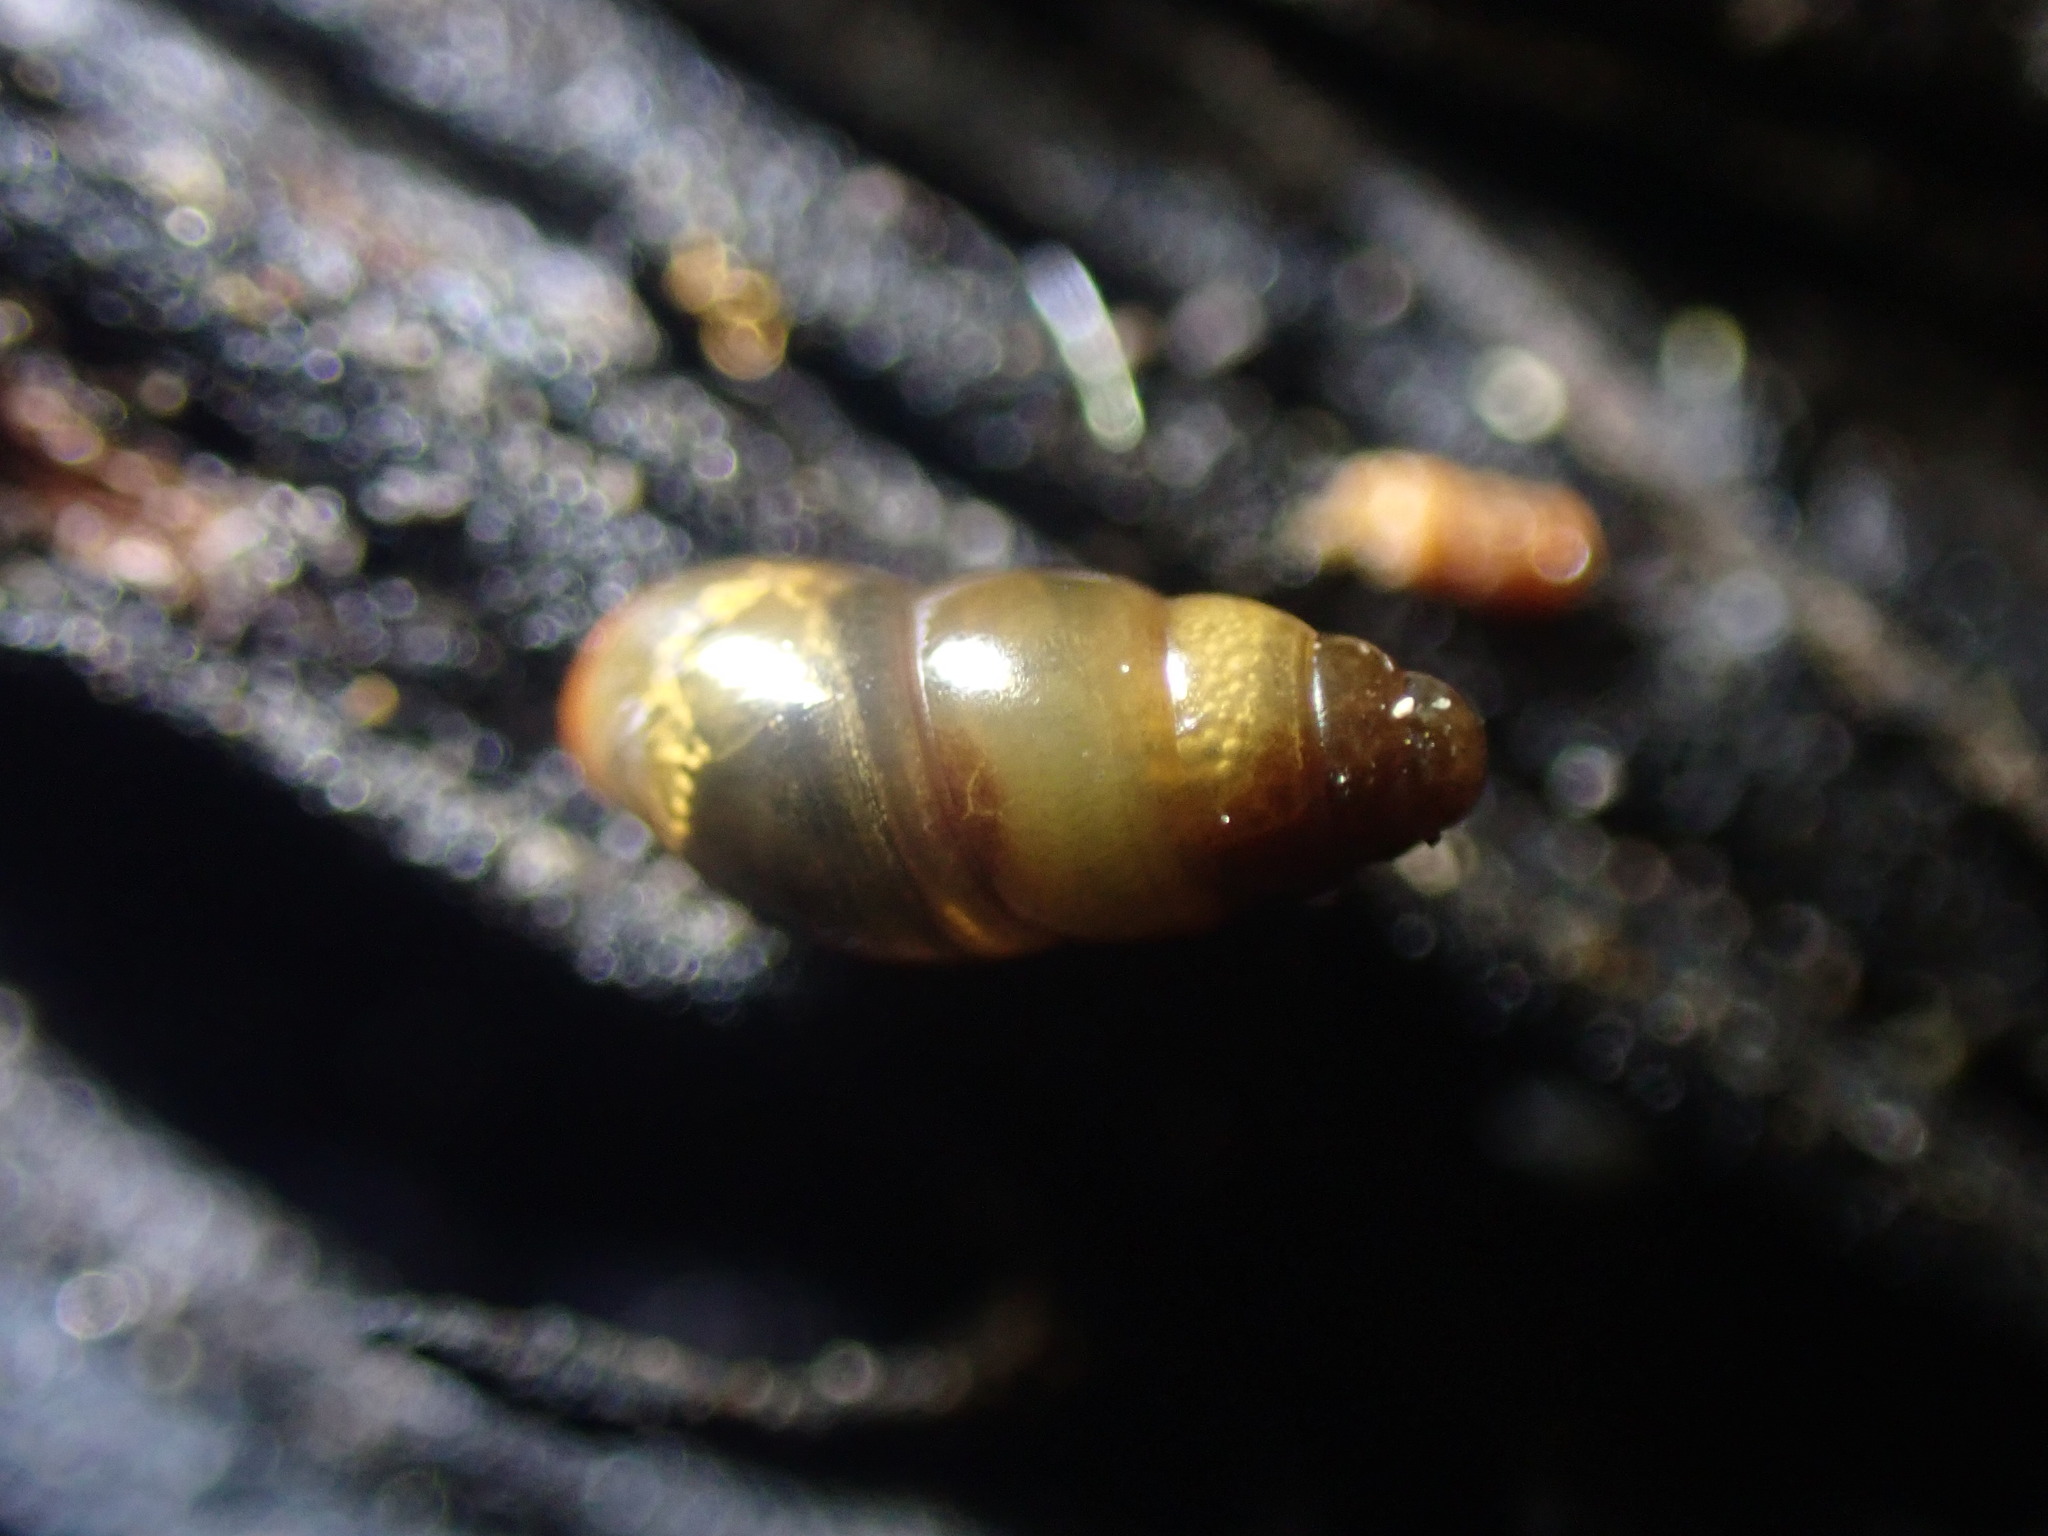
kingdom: Animalia
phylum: Mollusca
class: Gastropoda
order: Stylommatophora
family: Cochlicopidae
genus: Cochlicopa
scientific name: Cochlicopa lubrica
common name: Glossy pillar snail
